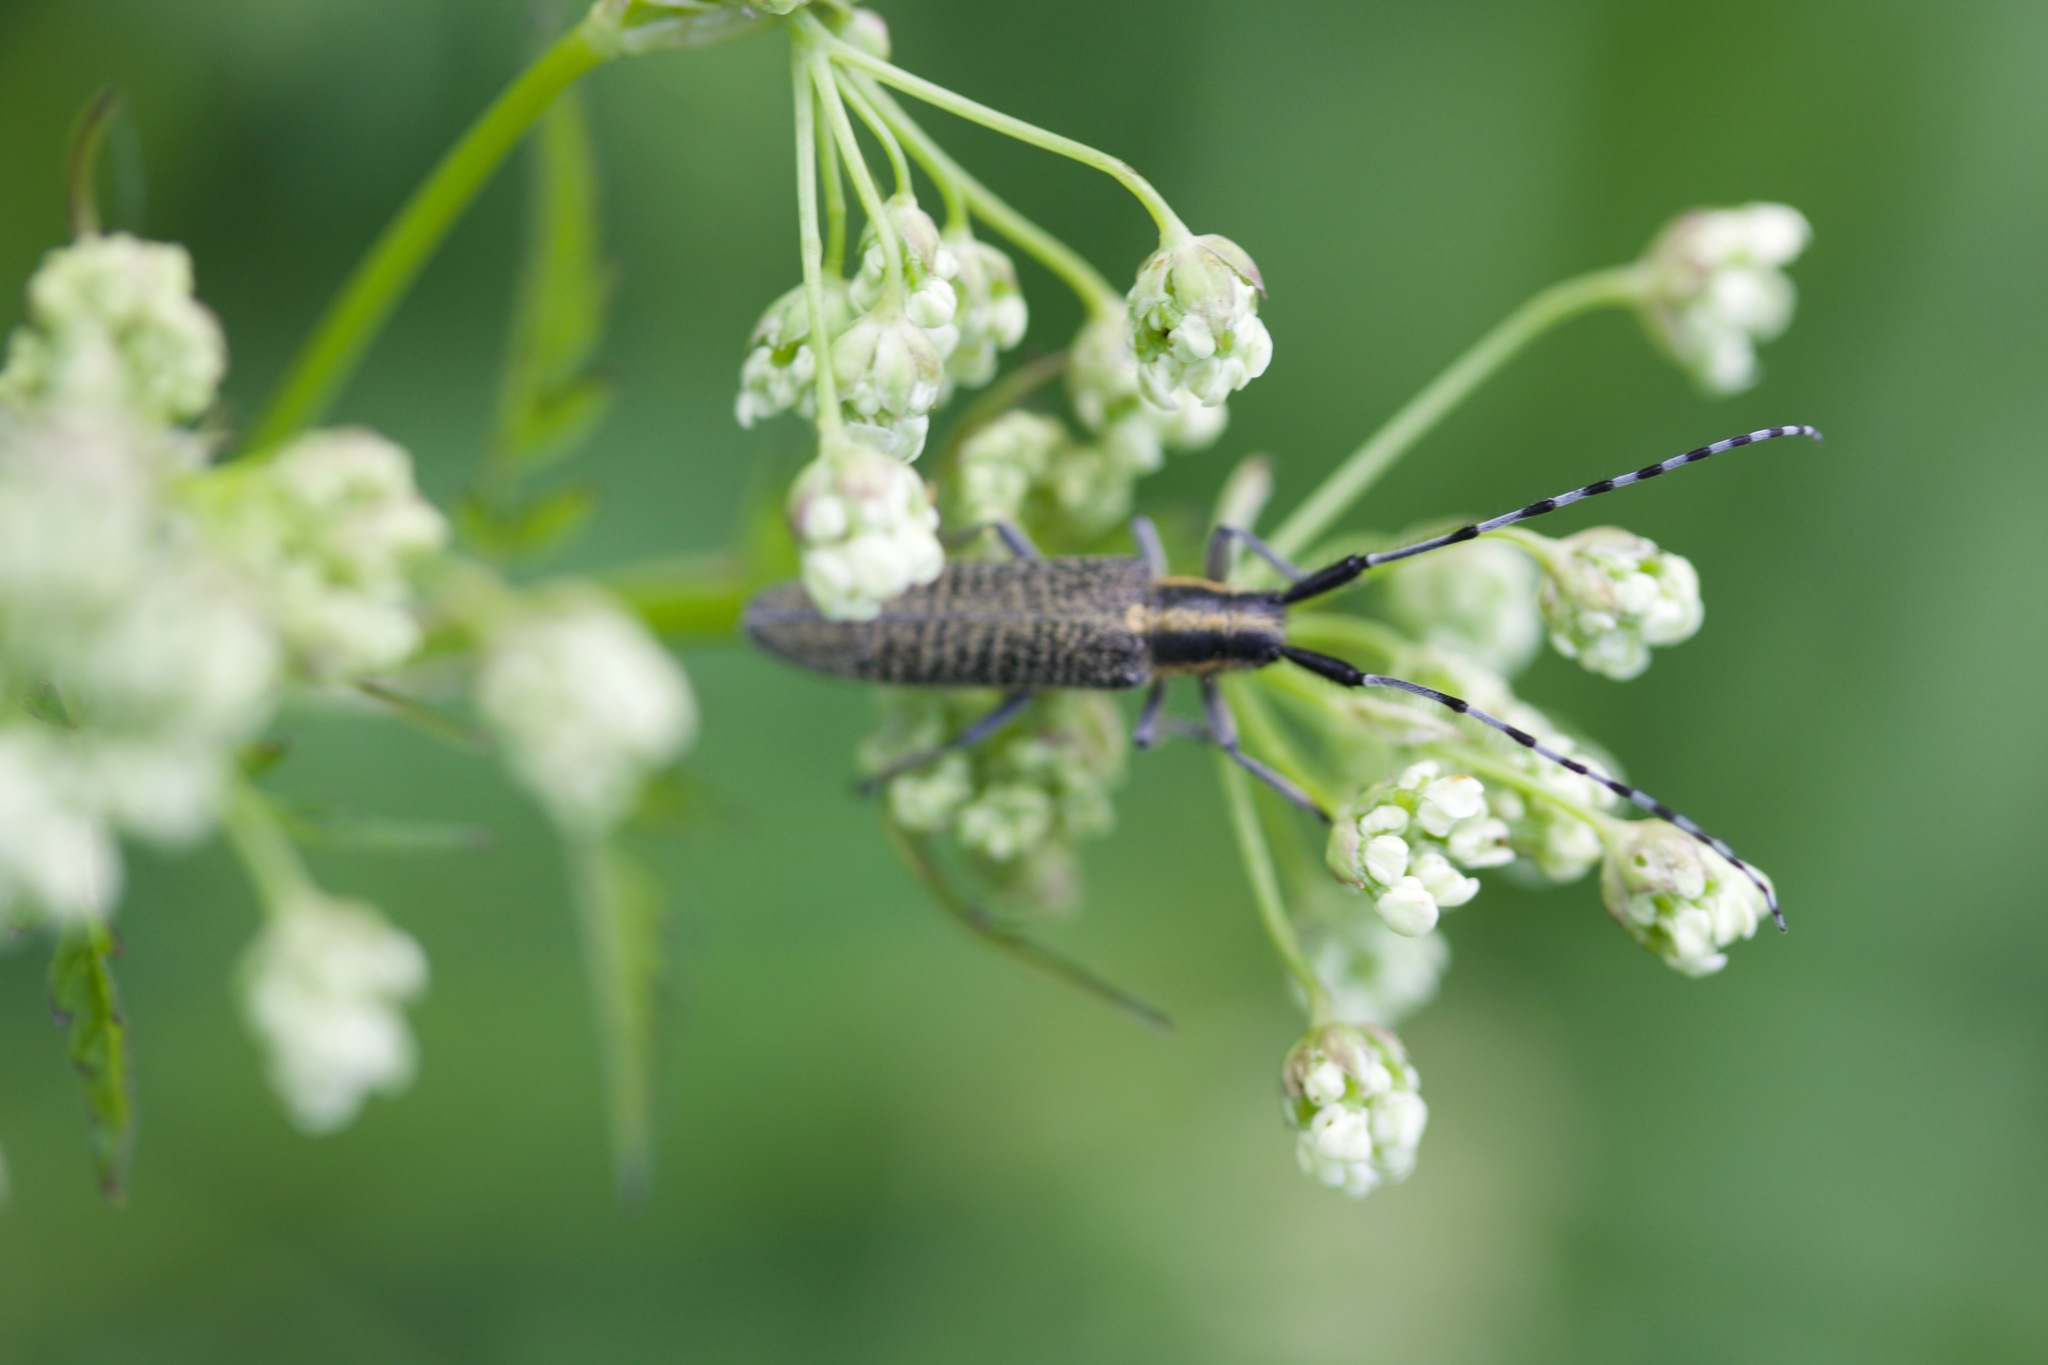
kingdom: Animalia
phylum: Arthropoda
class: Insecta
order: Coleoptera
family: Cerambycidae
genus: Agapanthia
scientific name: Agapanthia villosoviridescens
